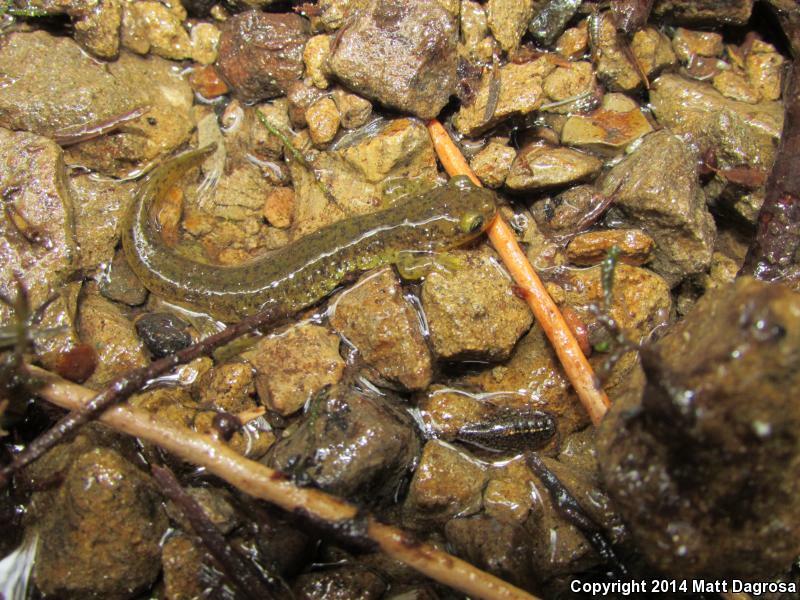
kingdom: Animalia
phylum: Chordata
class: Amphibia
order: Caudata
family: Rhyacotritonidae
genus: Rhyacotriton
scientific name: Rhyacotriton variegatus
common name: Southern torrent salamander
